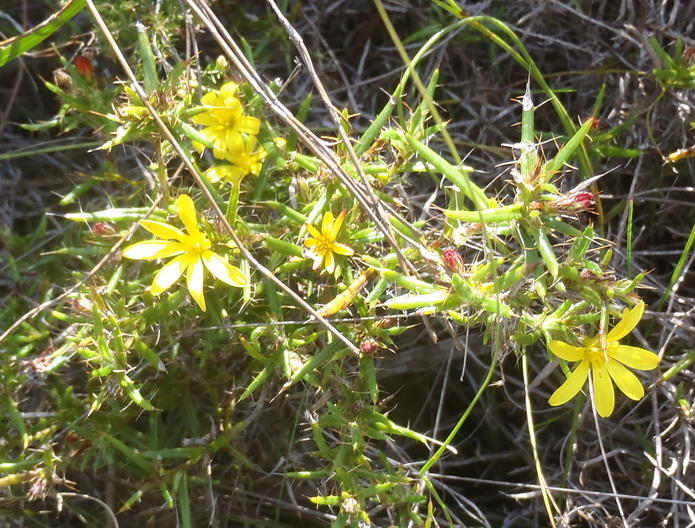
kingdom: Plantae
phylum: Tracheophyta
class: Magnoliopsida
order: Asterales
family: Asteraceae
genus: Cullumia
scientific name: Cullumia bisulca
